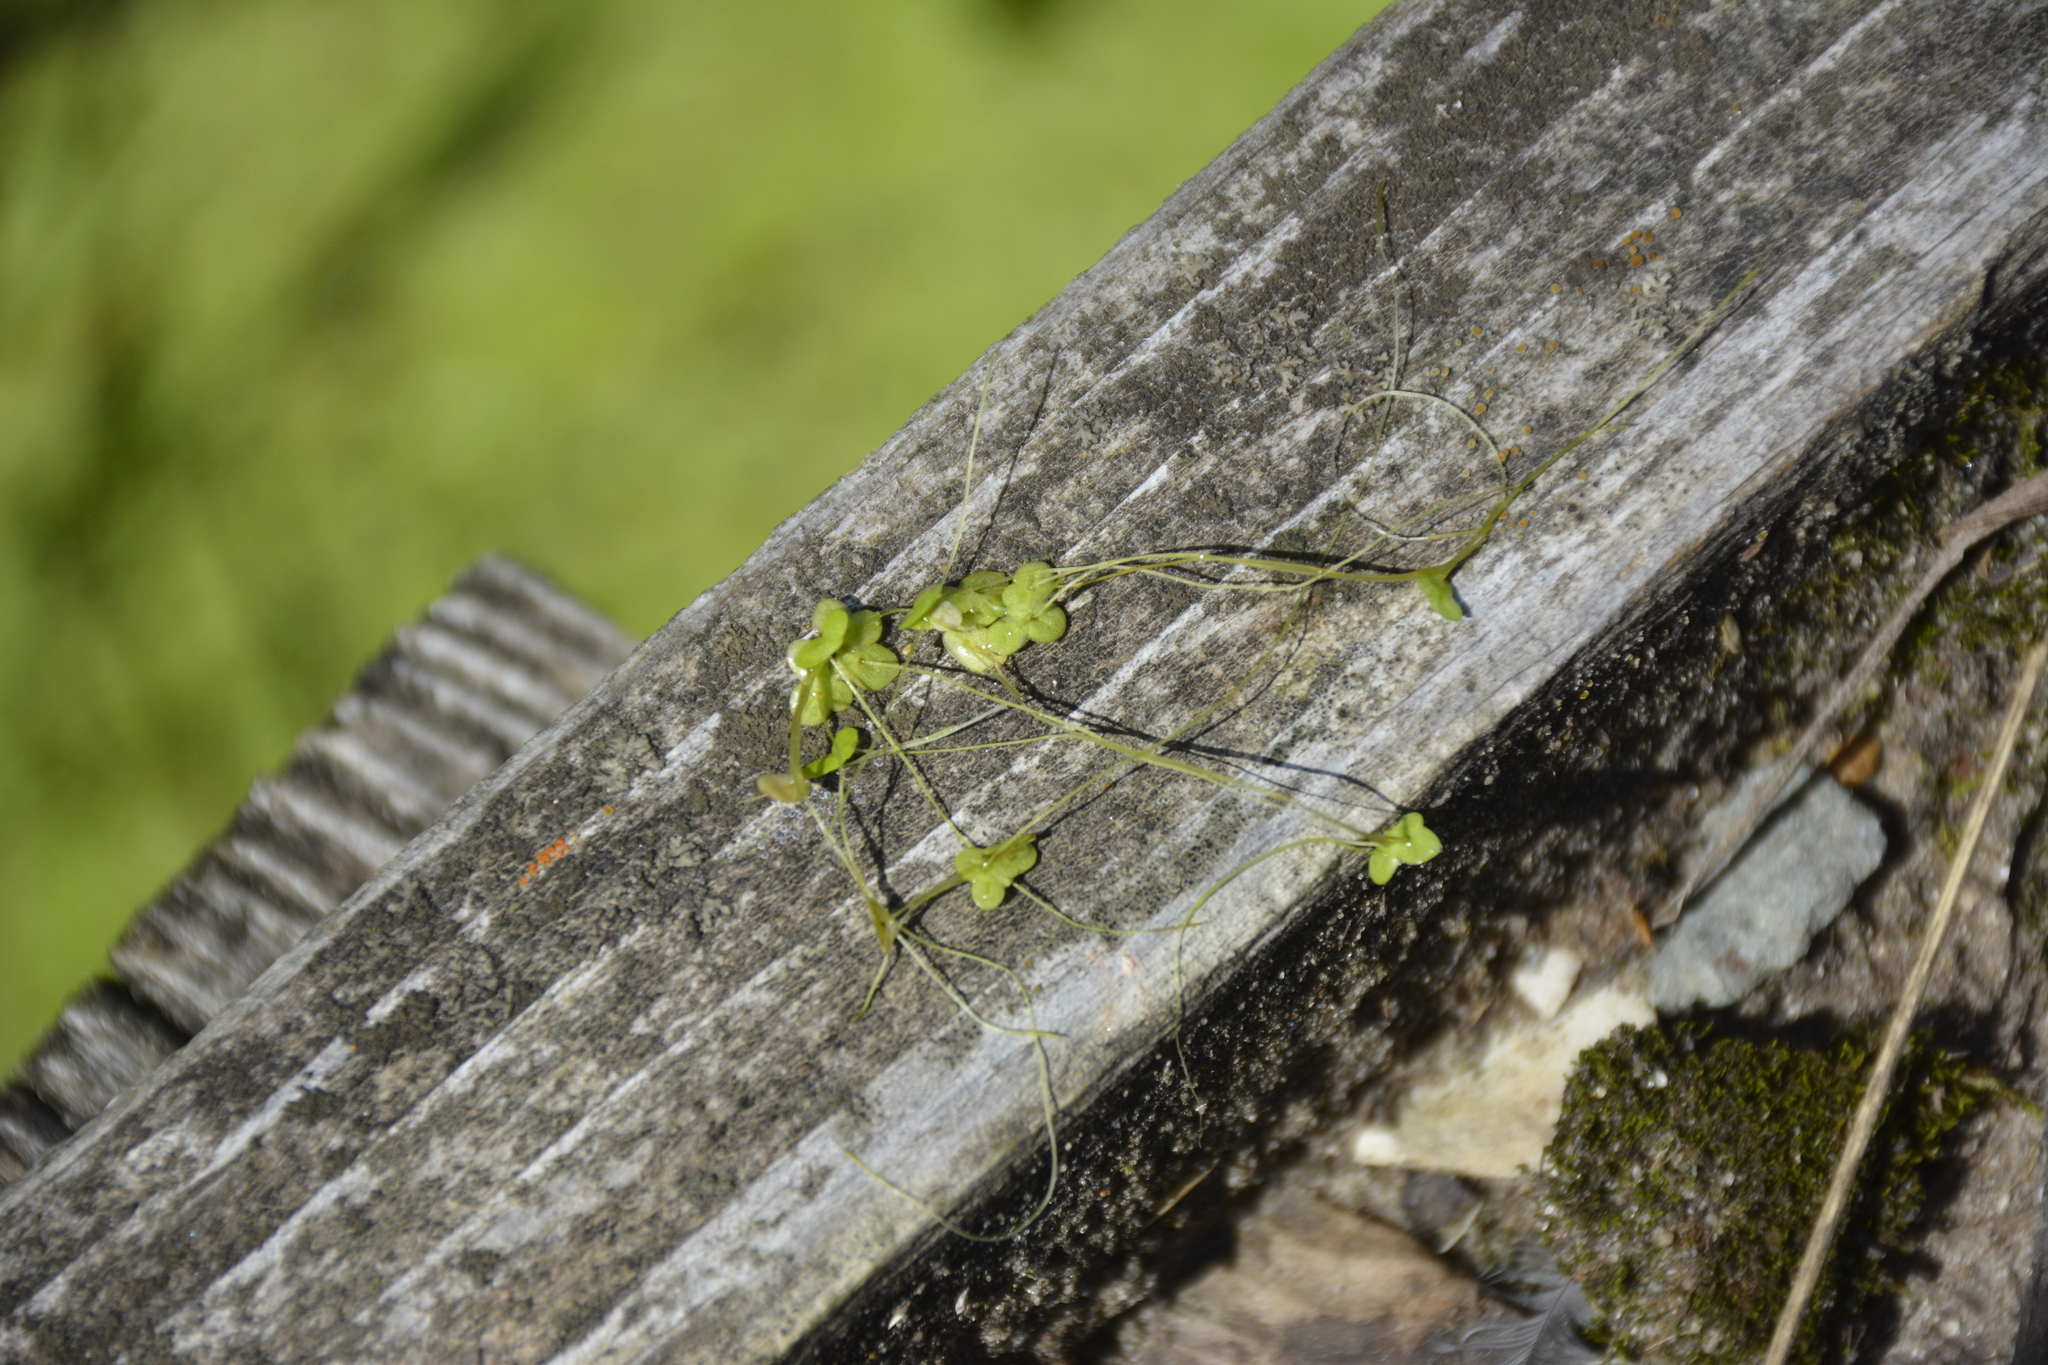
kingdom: Plantae
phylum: Tracheophyta
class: Liliopsida
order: Alismatales
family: Araceae
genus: Lemna
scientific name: Lemna minor
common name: Common duckweed
